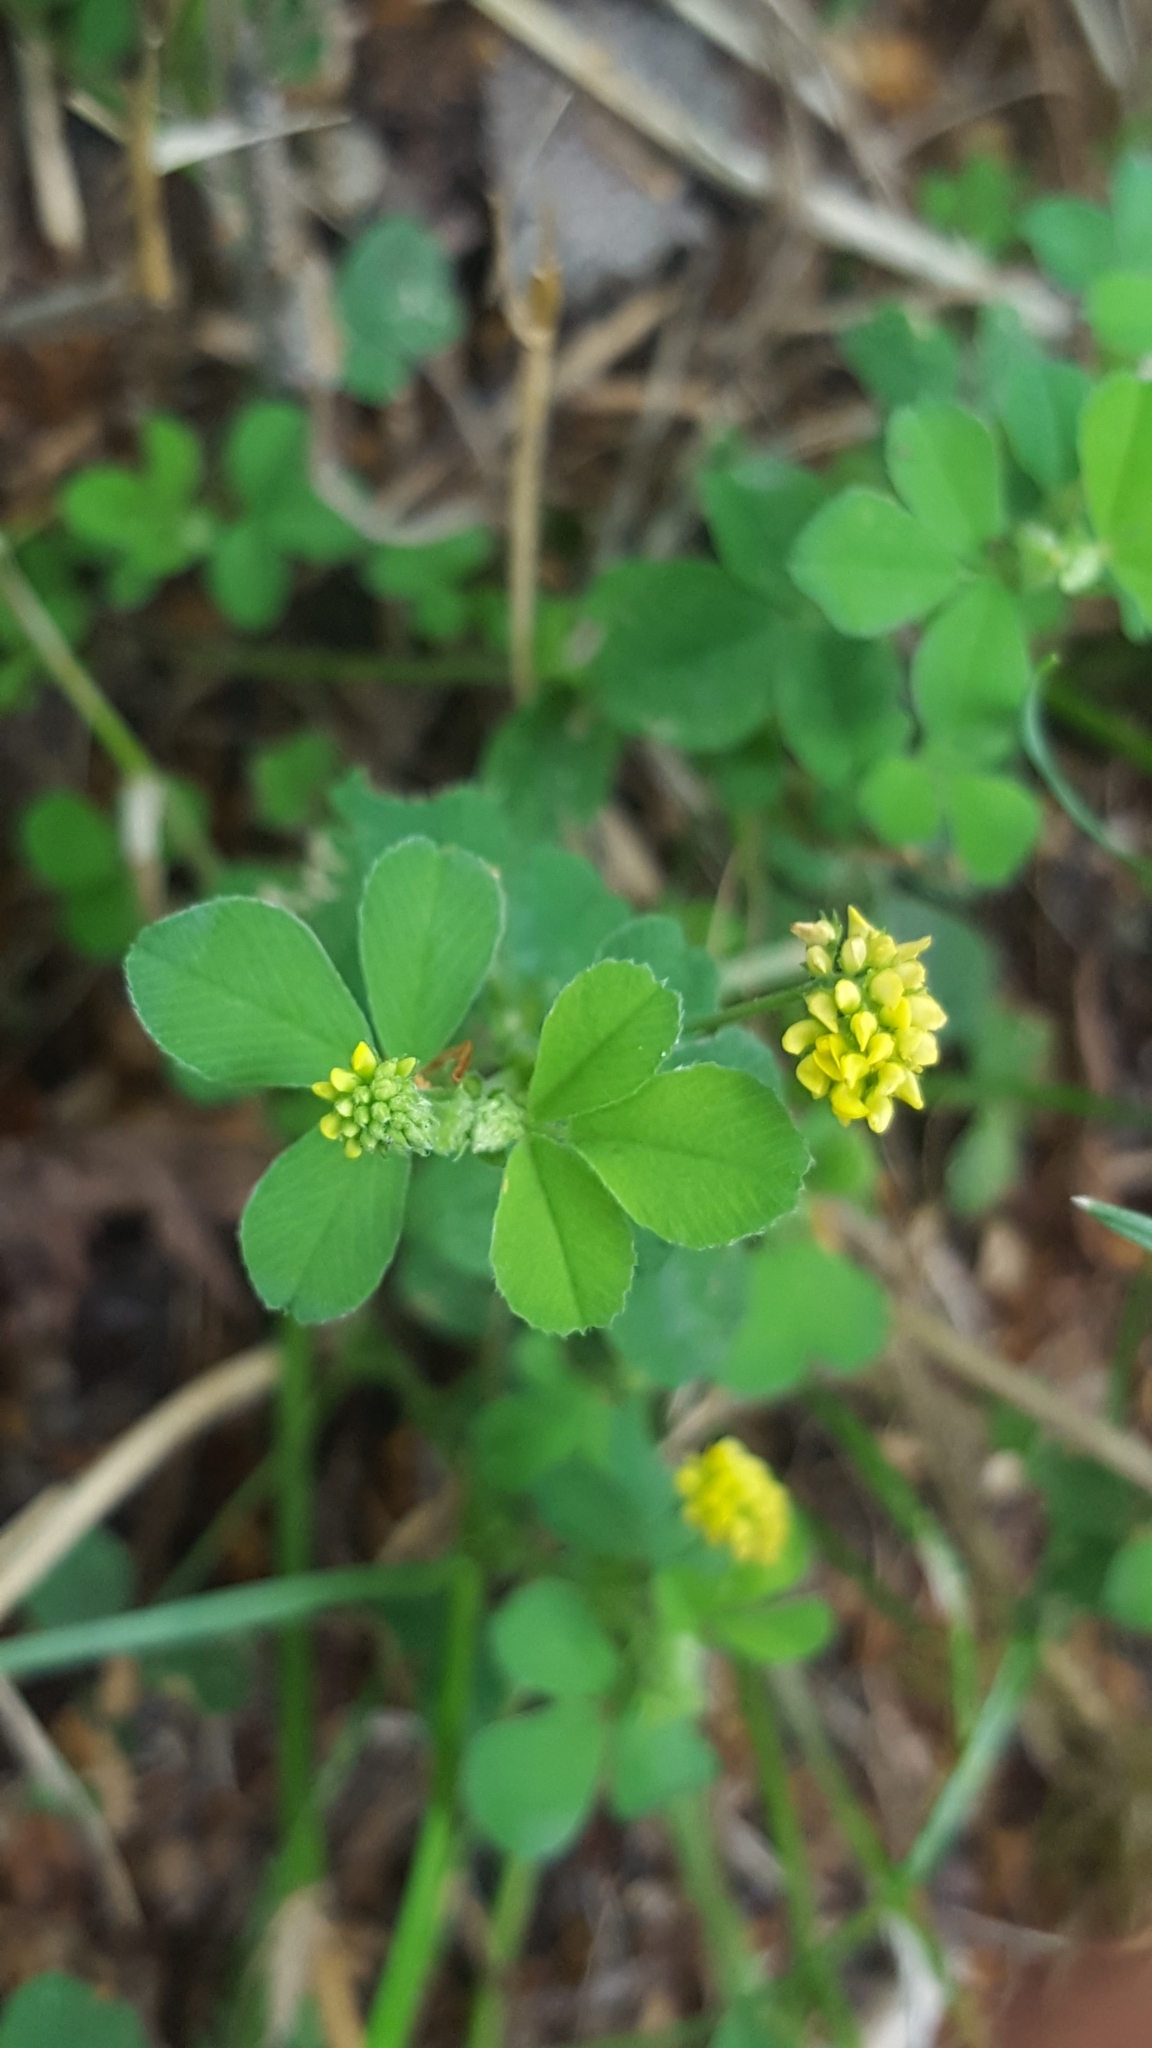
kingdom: Plantae
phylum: Tracheophyta
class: Magnoliopsida
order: Fabales
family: Fabaceae
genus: Medicago
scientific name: Medicago lupulina
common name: Black medick
